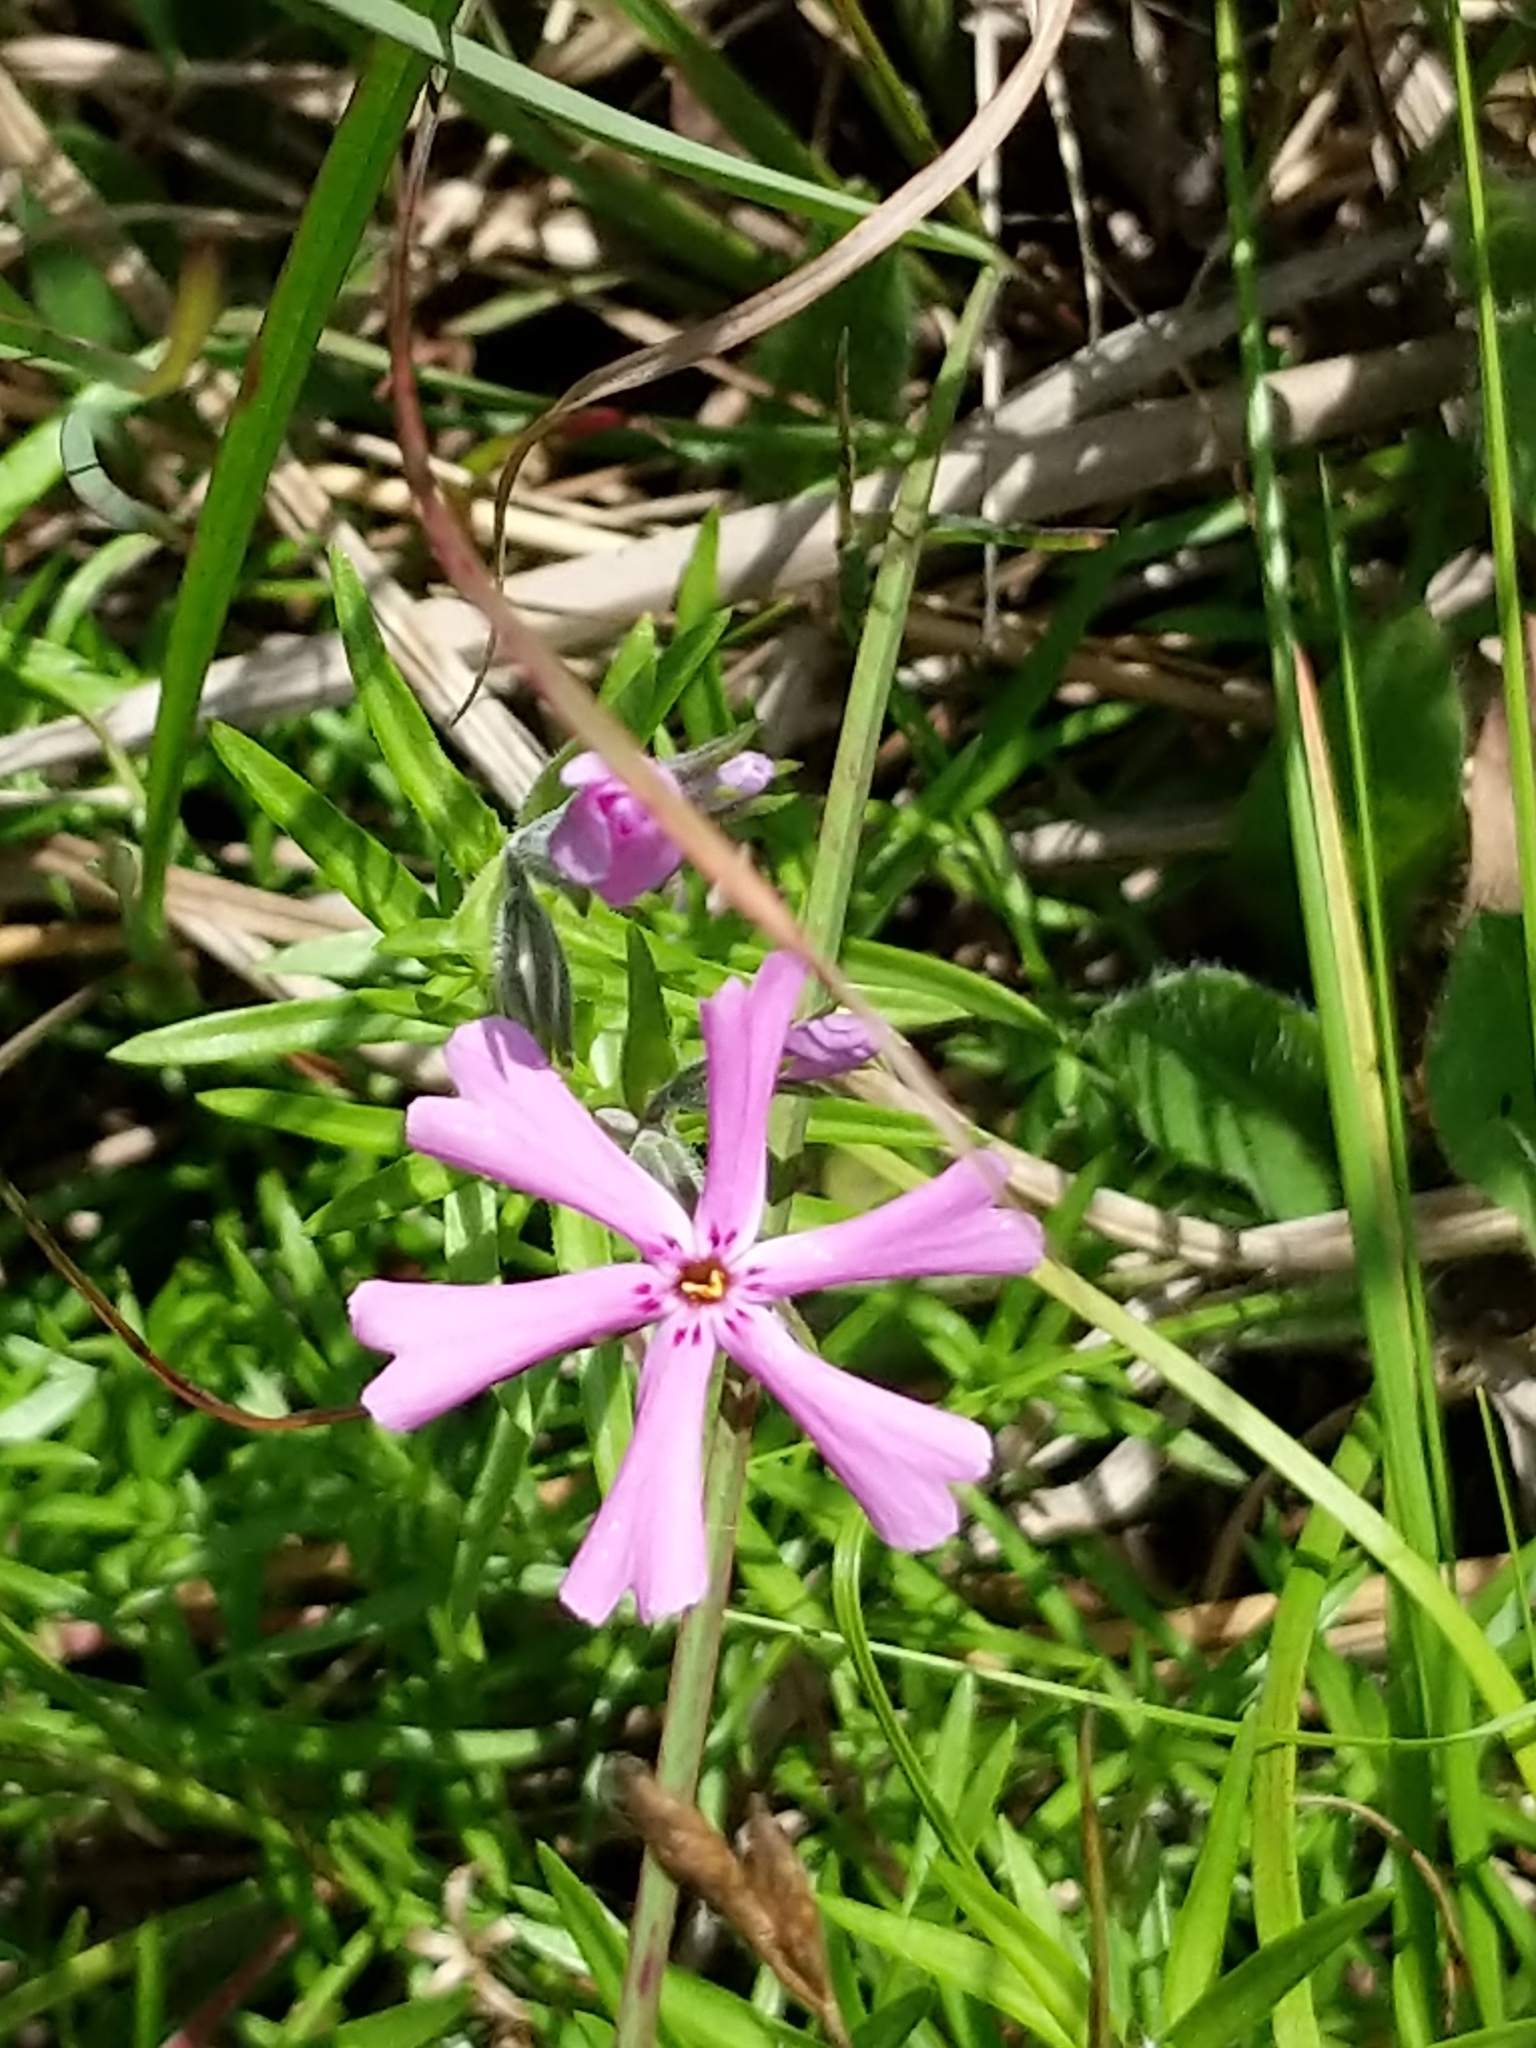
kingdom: Plantae
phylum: Tracheophyta
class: Magnoliopsida
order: Ericales
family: Polemoniaceae
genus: Phlox
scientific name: Phlox subulata
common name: Moss phlox
